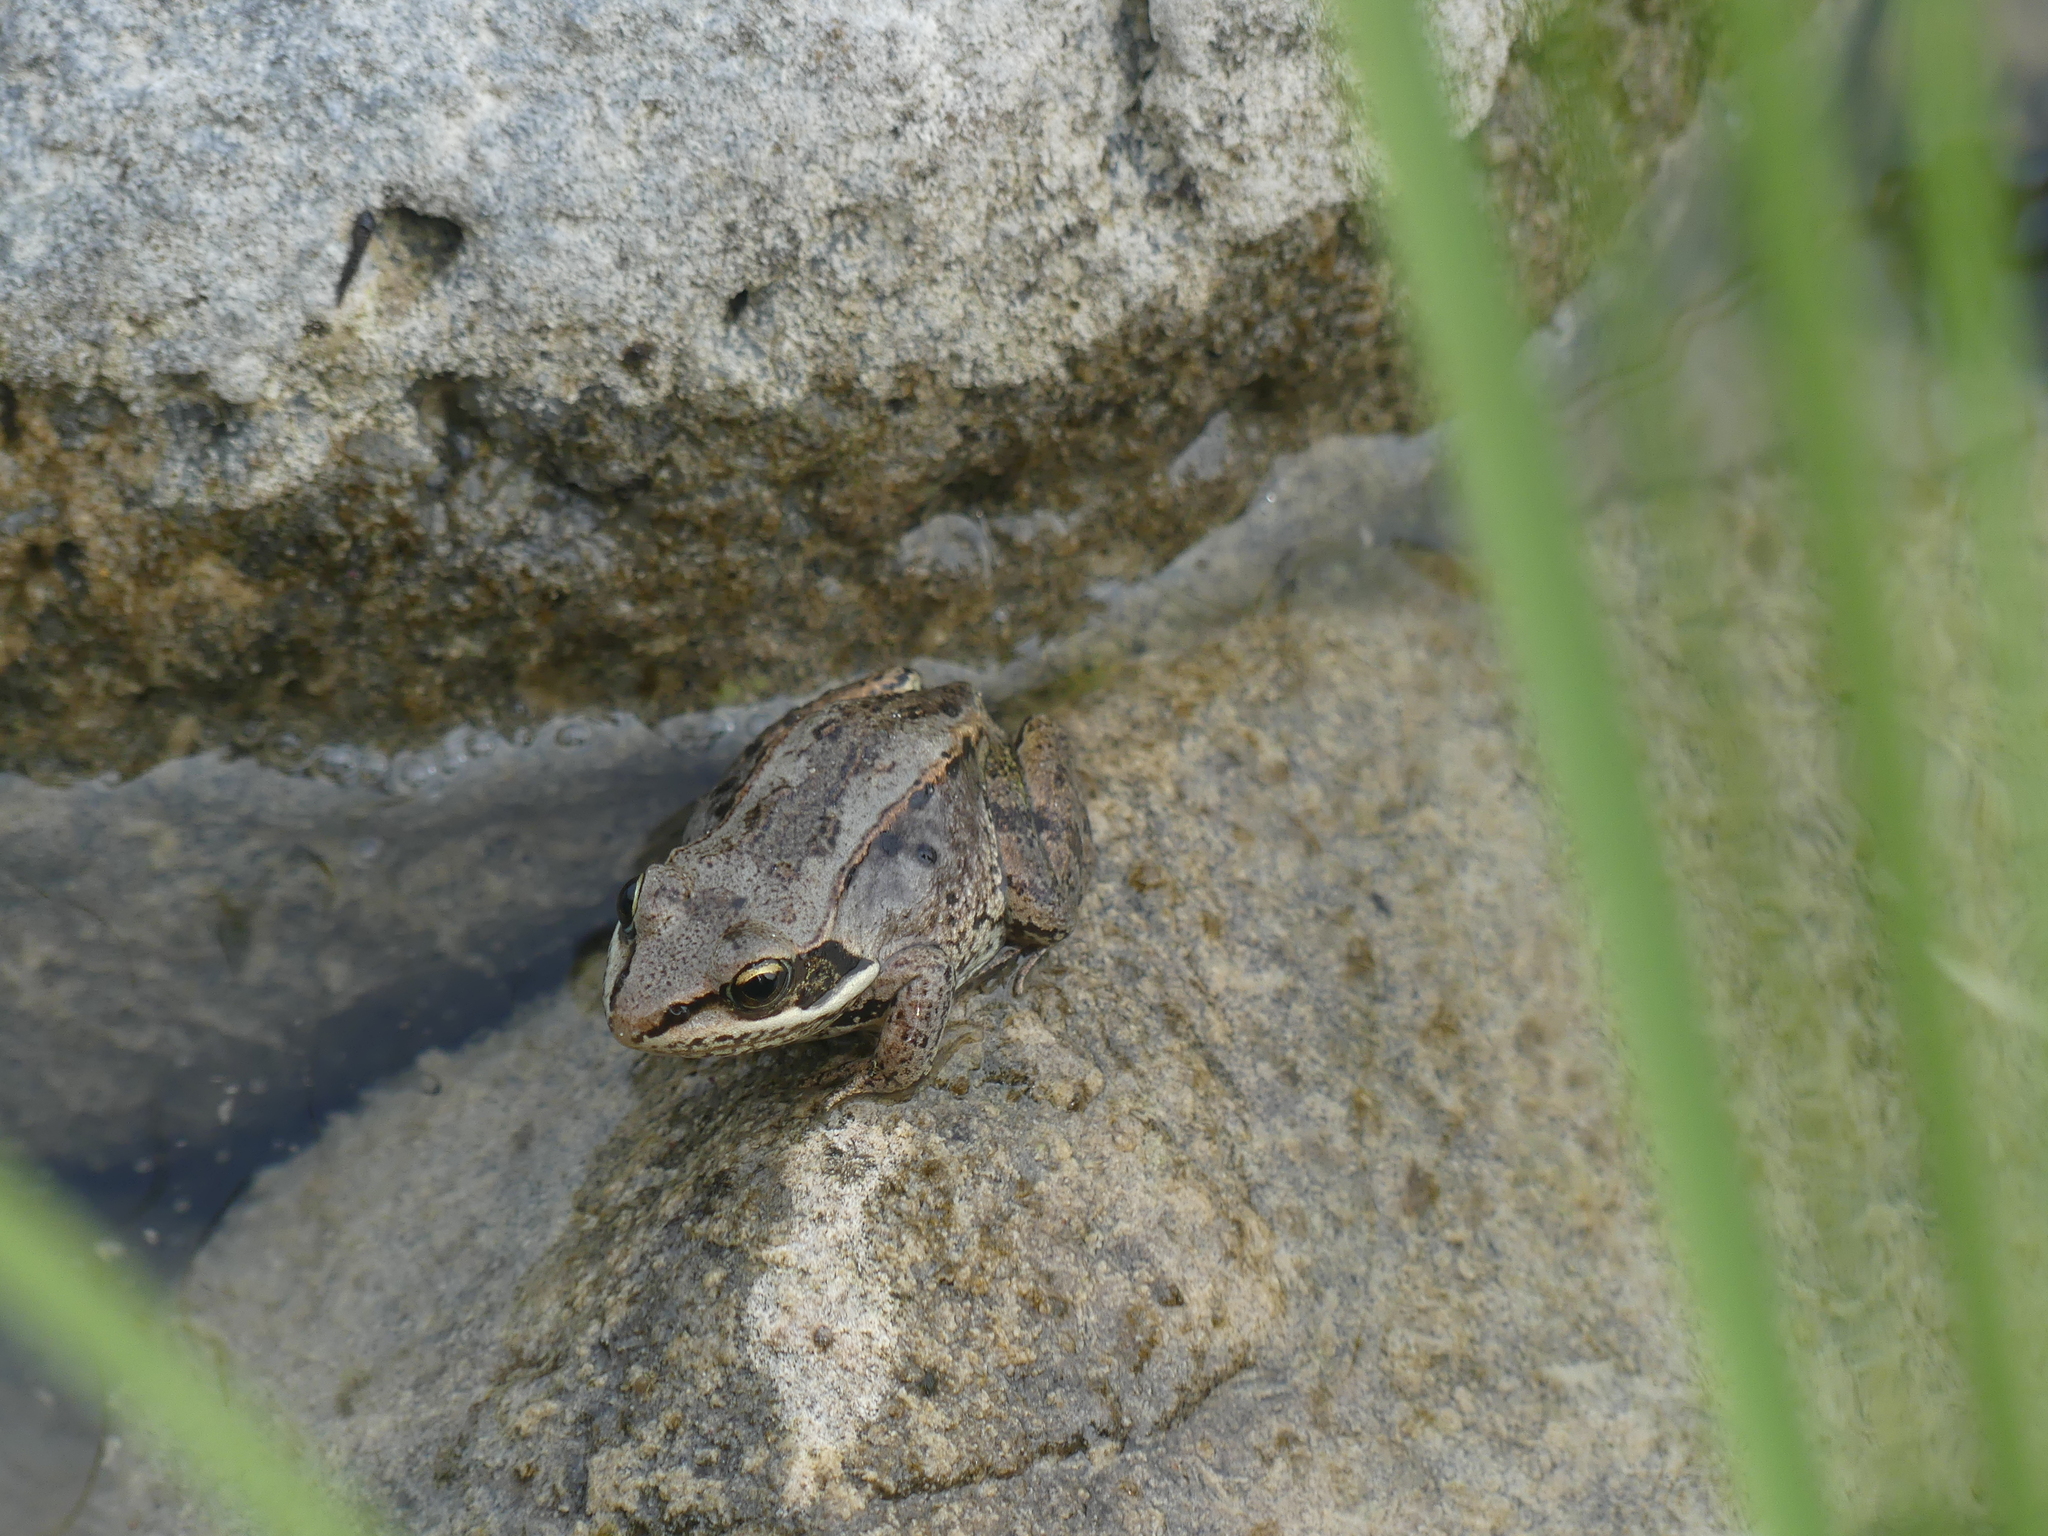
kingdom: Animalia
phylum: Chordata
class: Amphibia
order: Anura
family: Ranidae
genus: Lithobates
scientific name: Lithobates sylvaticus
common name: Wood frog
